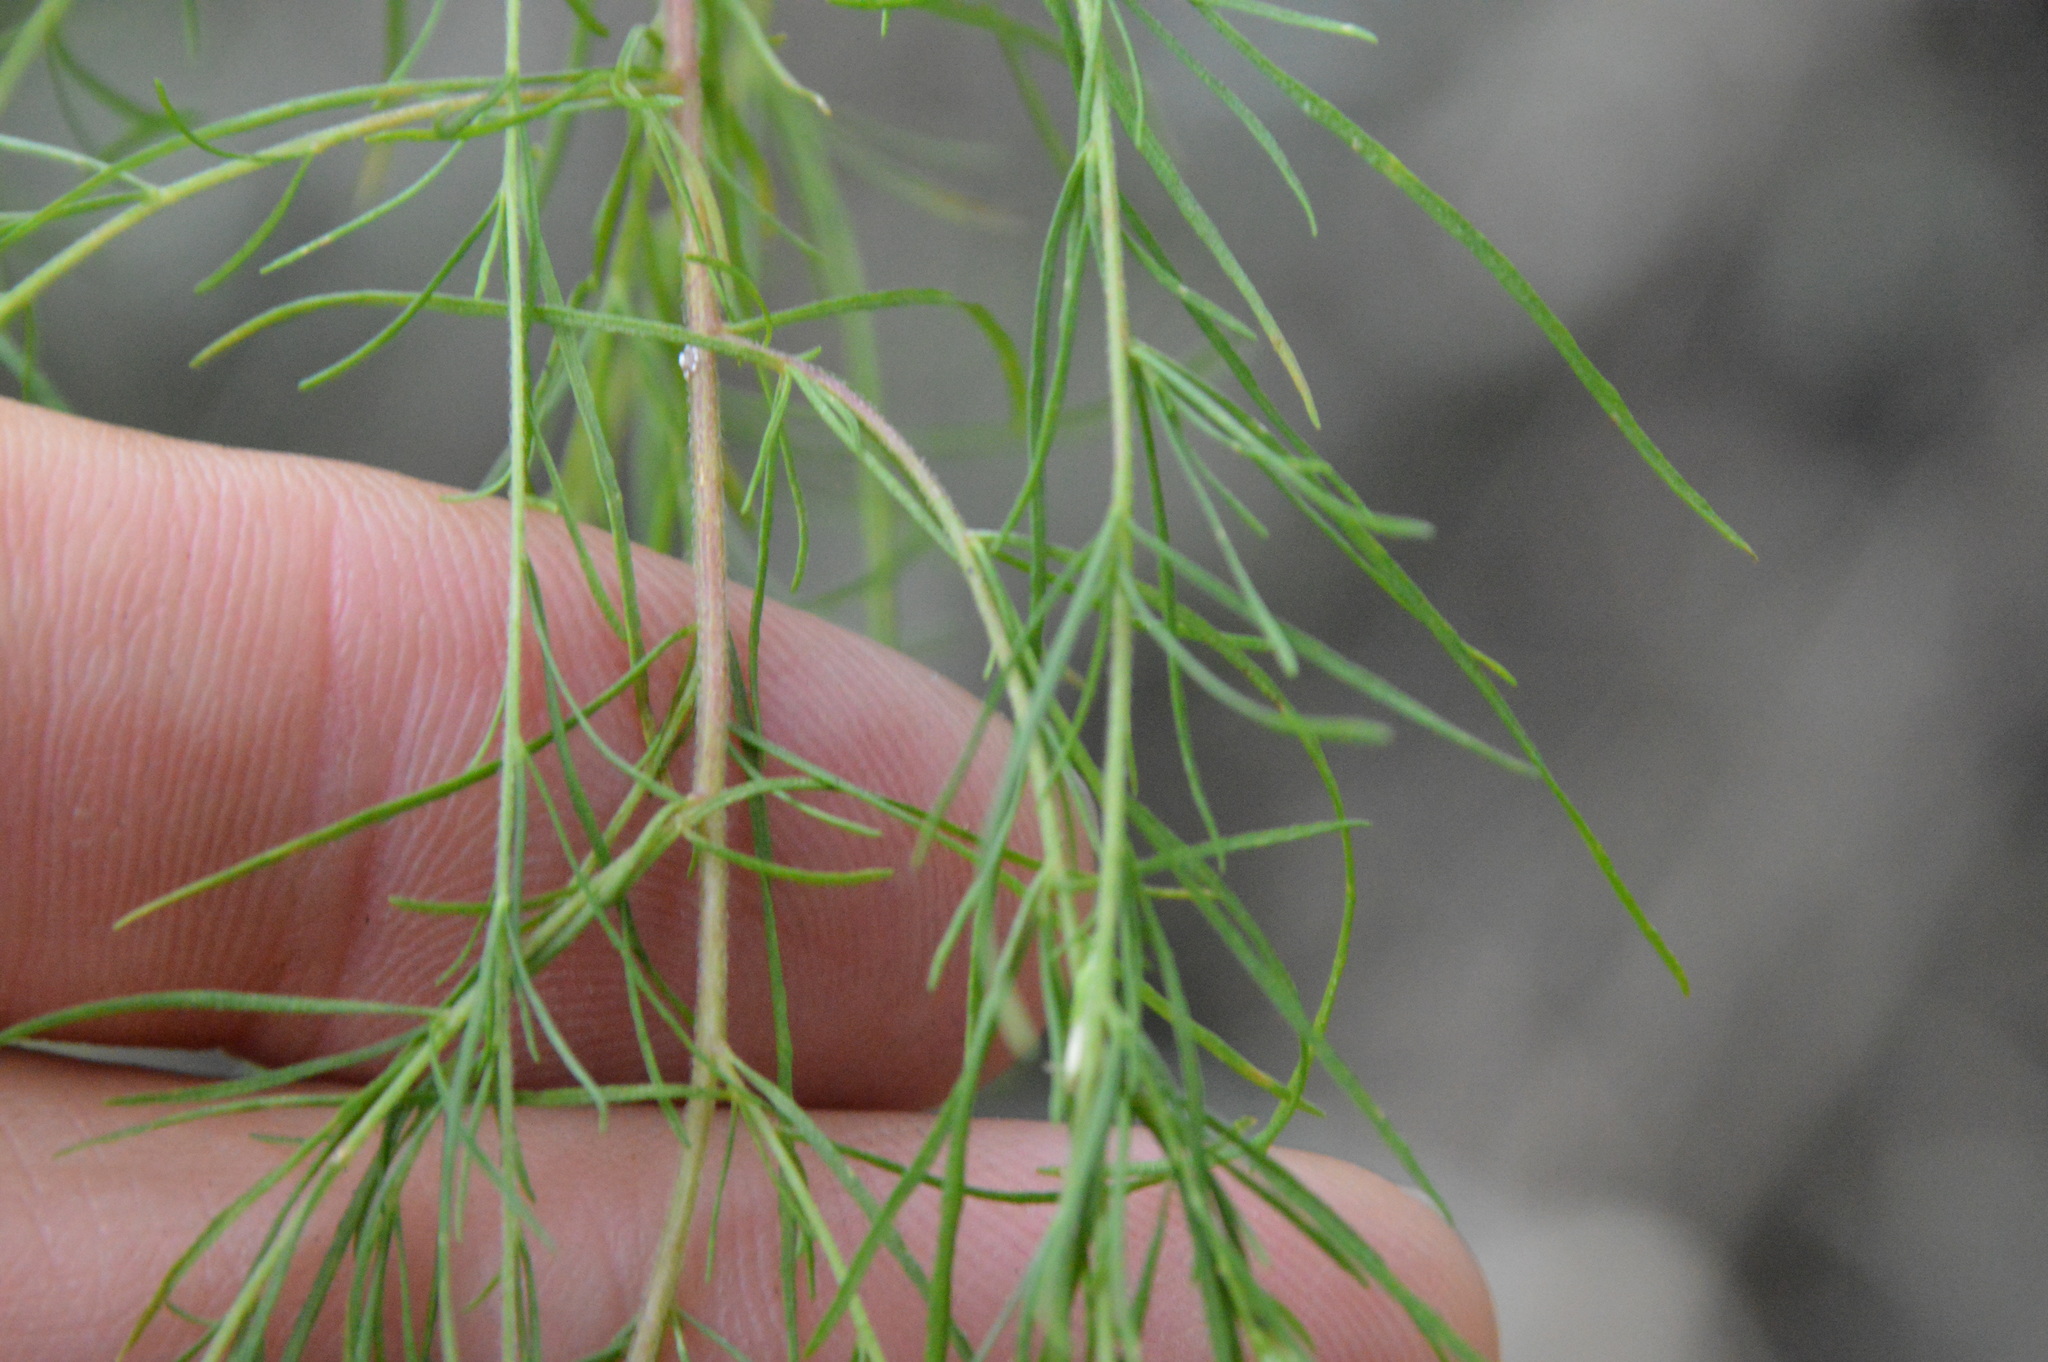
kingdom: Plantae
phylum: Tracheophyta
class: Magnoliopsida
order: Asterales
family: Asteraceae
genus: Eupatorium
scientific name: Eupatorium capillifolium
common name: Dog-fennel
